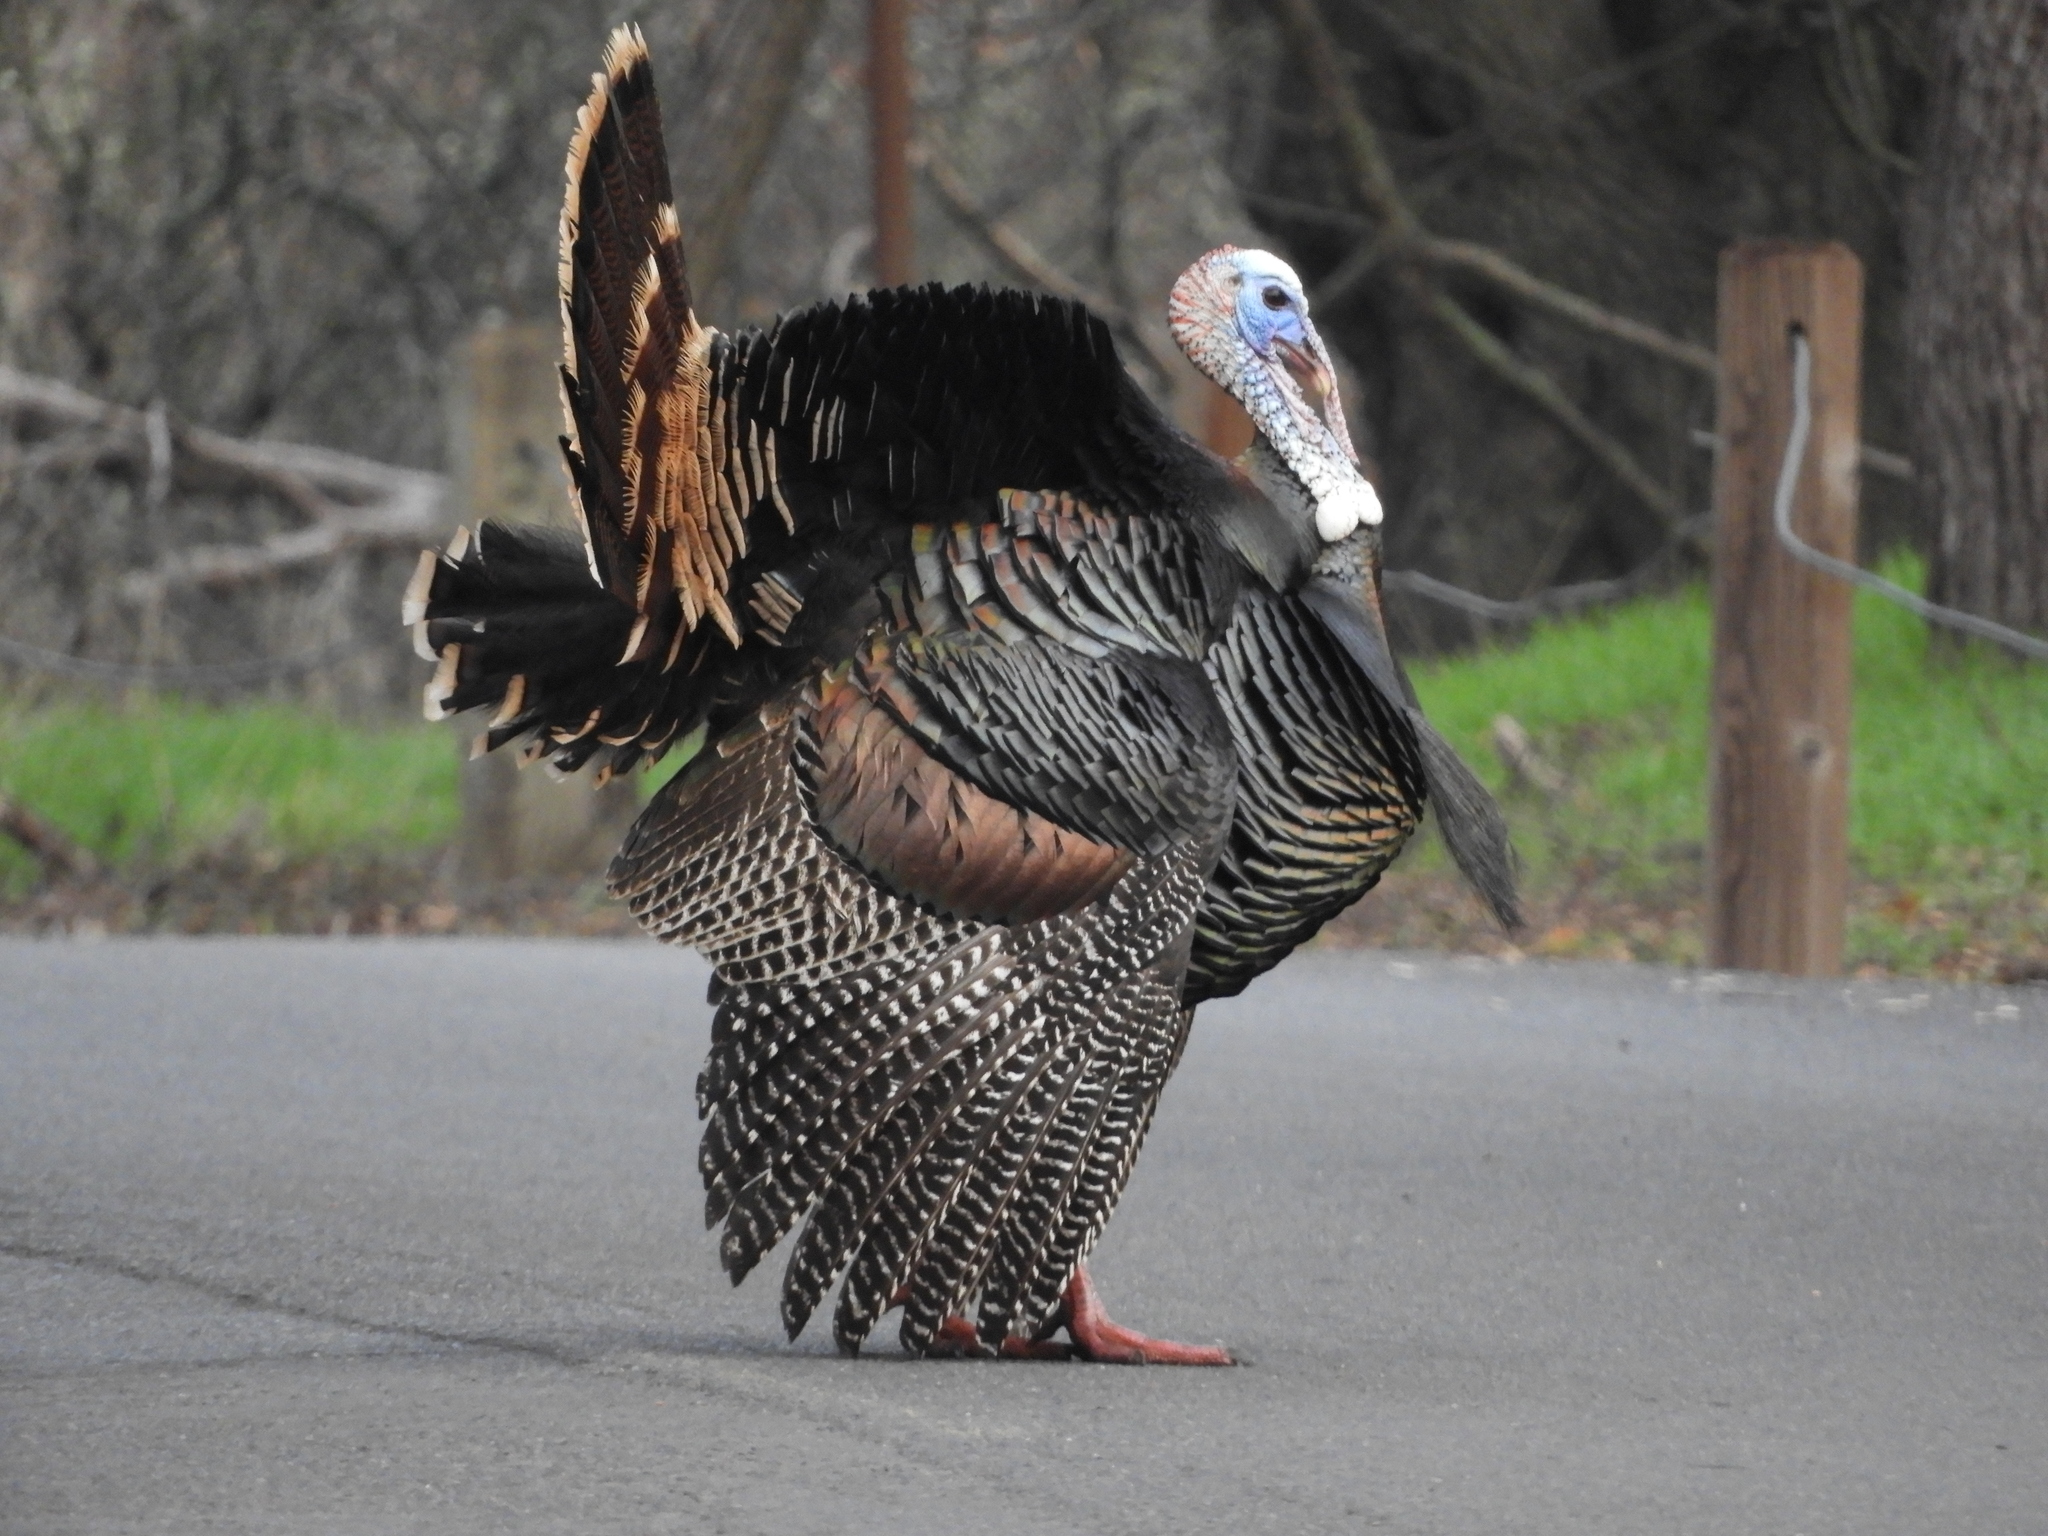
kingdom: Animalia
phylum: Chordata
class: Aves
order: Galliformes
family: Phasianidae
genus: Meleagris
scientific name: Meleagris gallopavo
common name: Wild turkey
